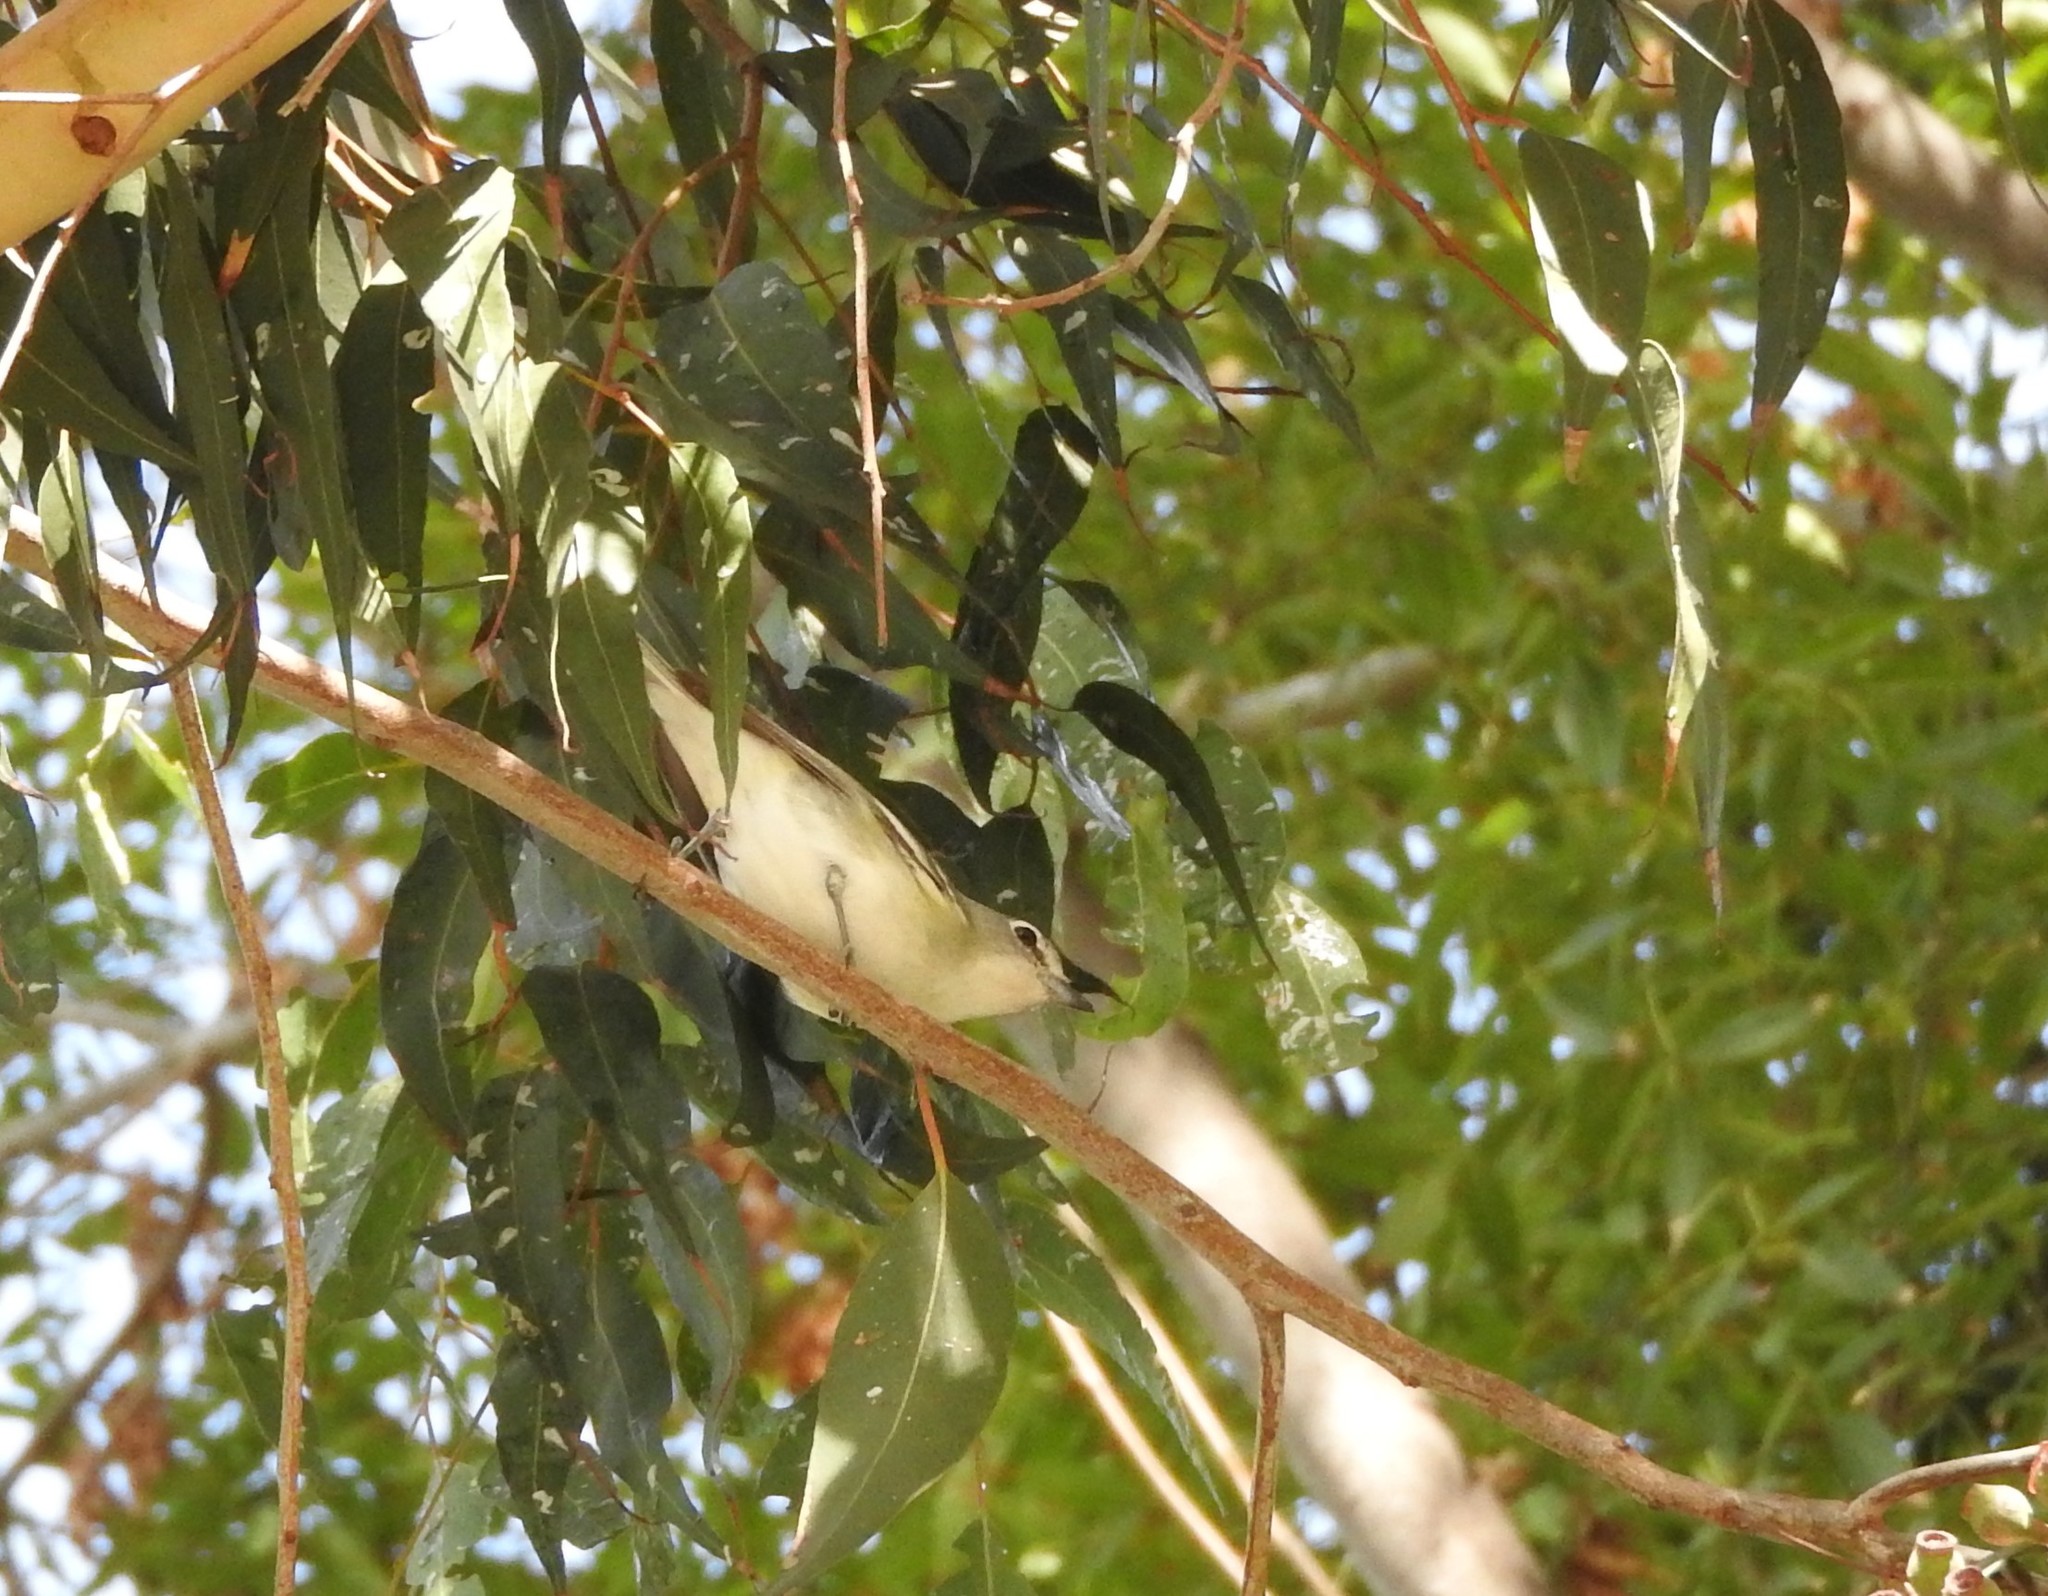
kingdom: Animalia
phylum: Chordata
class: Aves
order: Passeriformes
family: Vireonidae
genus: Vireo
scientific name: Vireo cassinii
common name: Cassin's vireo
